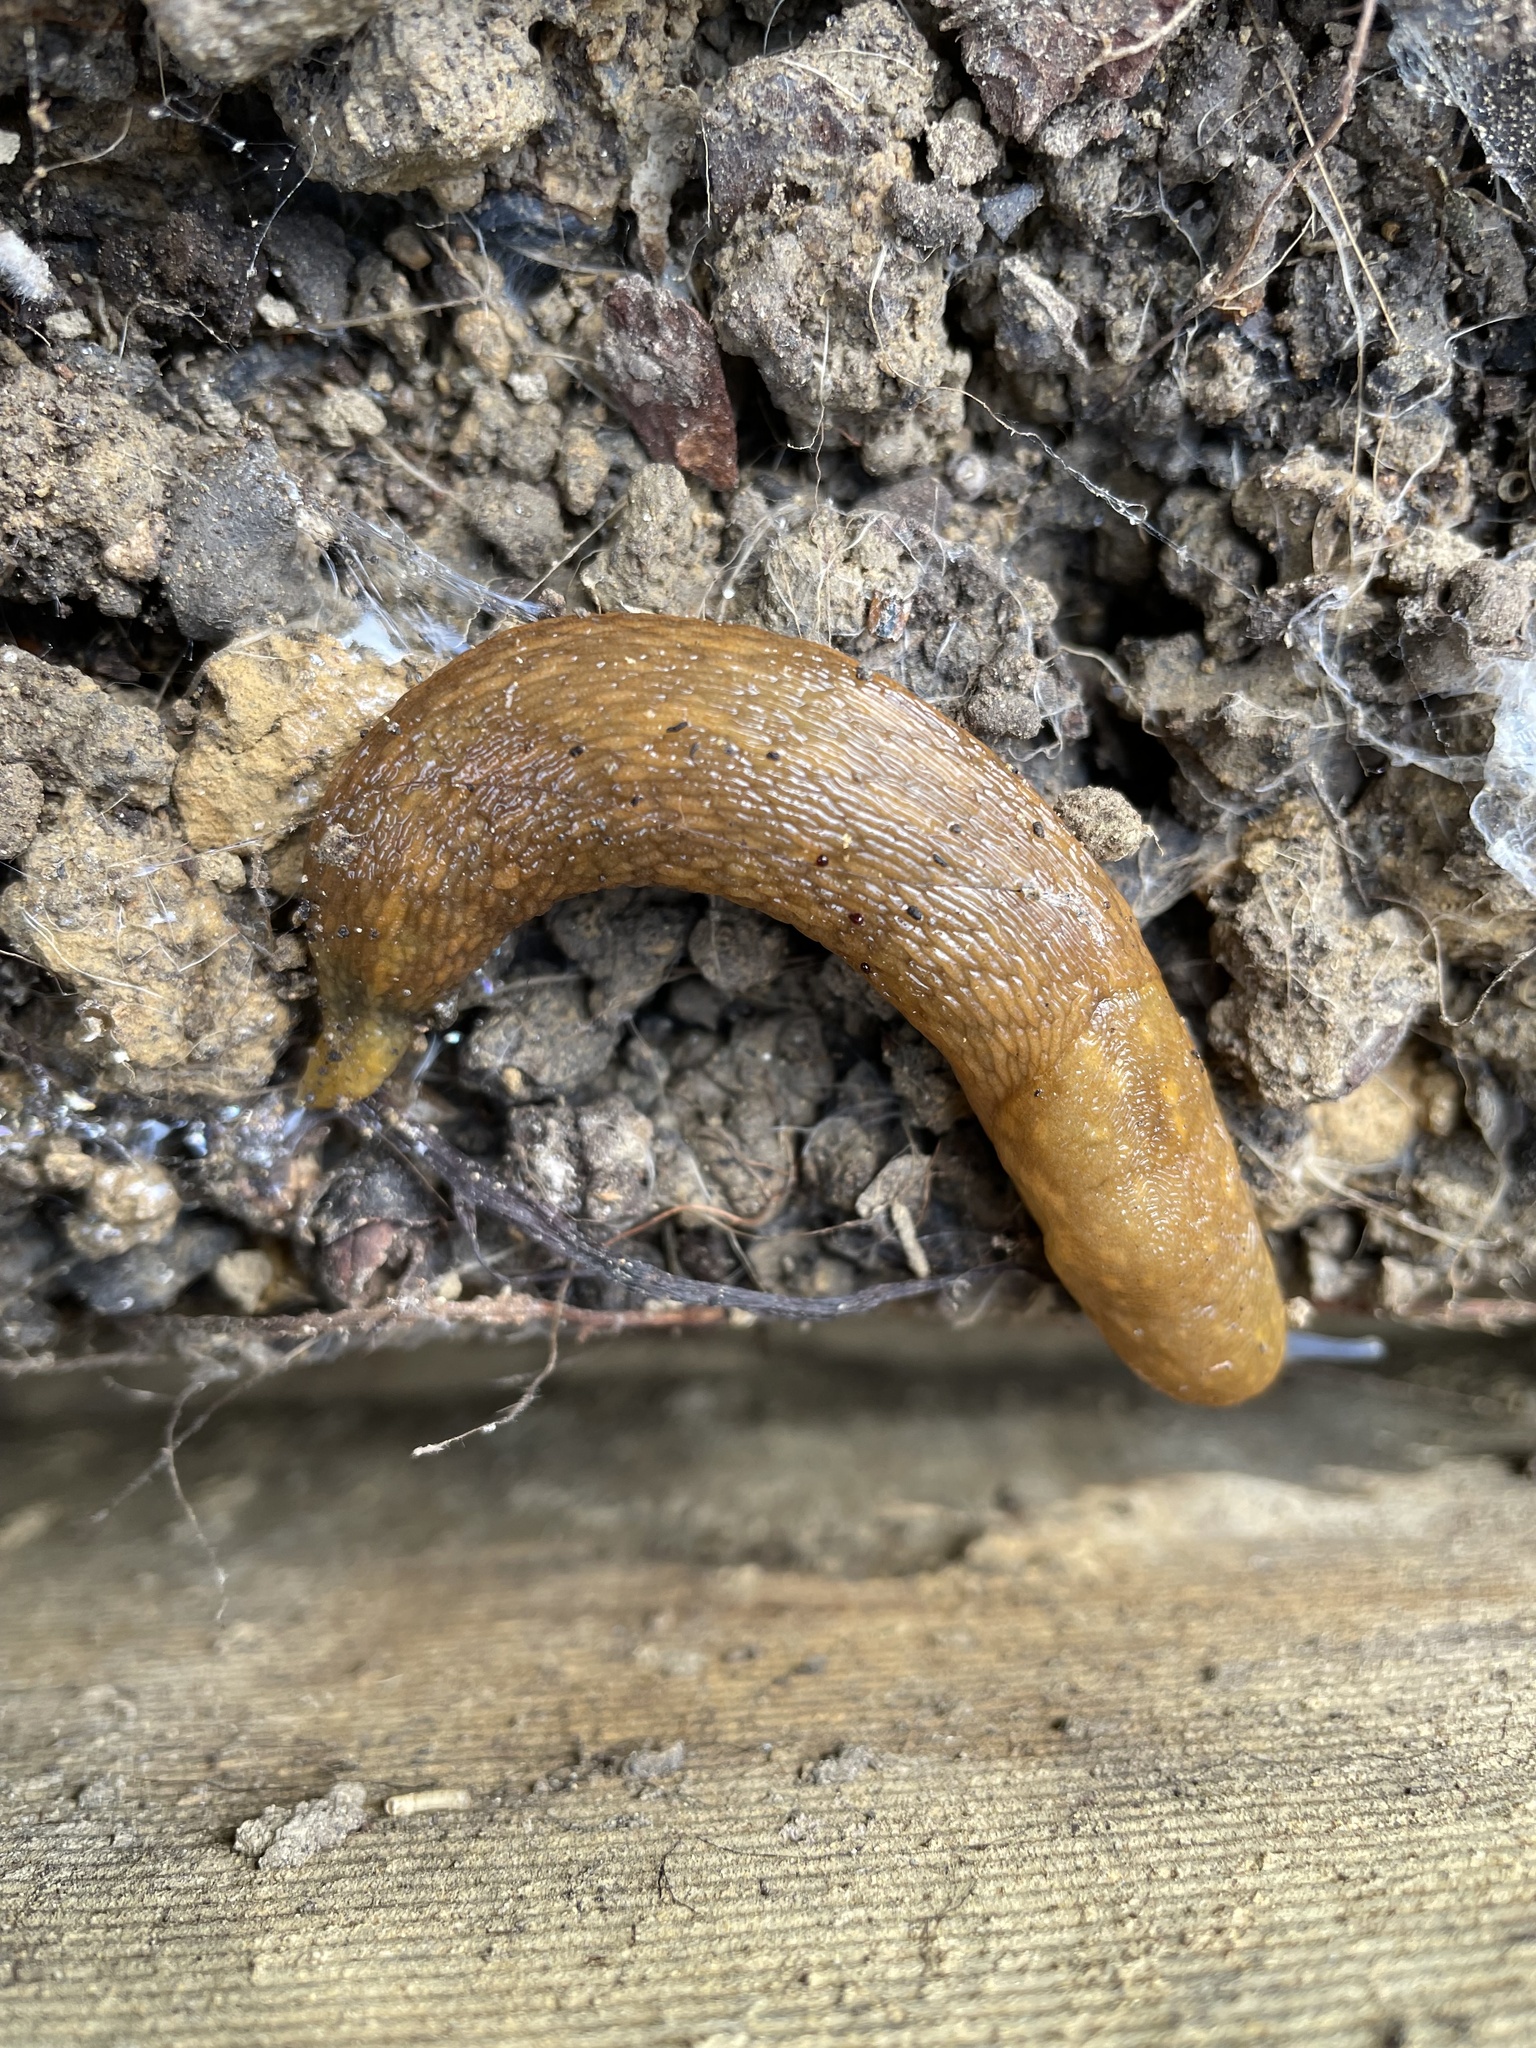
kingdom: Animalia
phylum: Mollusca
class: Gastropoda
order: Stylommatophora
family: Limacidae
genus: Limacus
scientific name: Limacus flavus
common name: Yellow gardenslug
